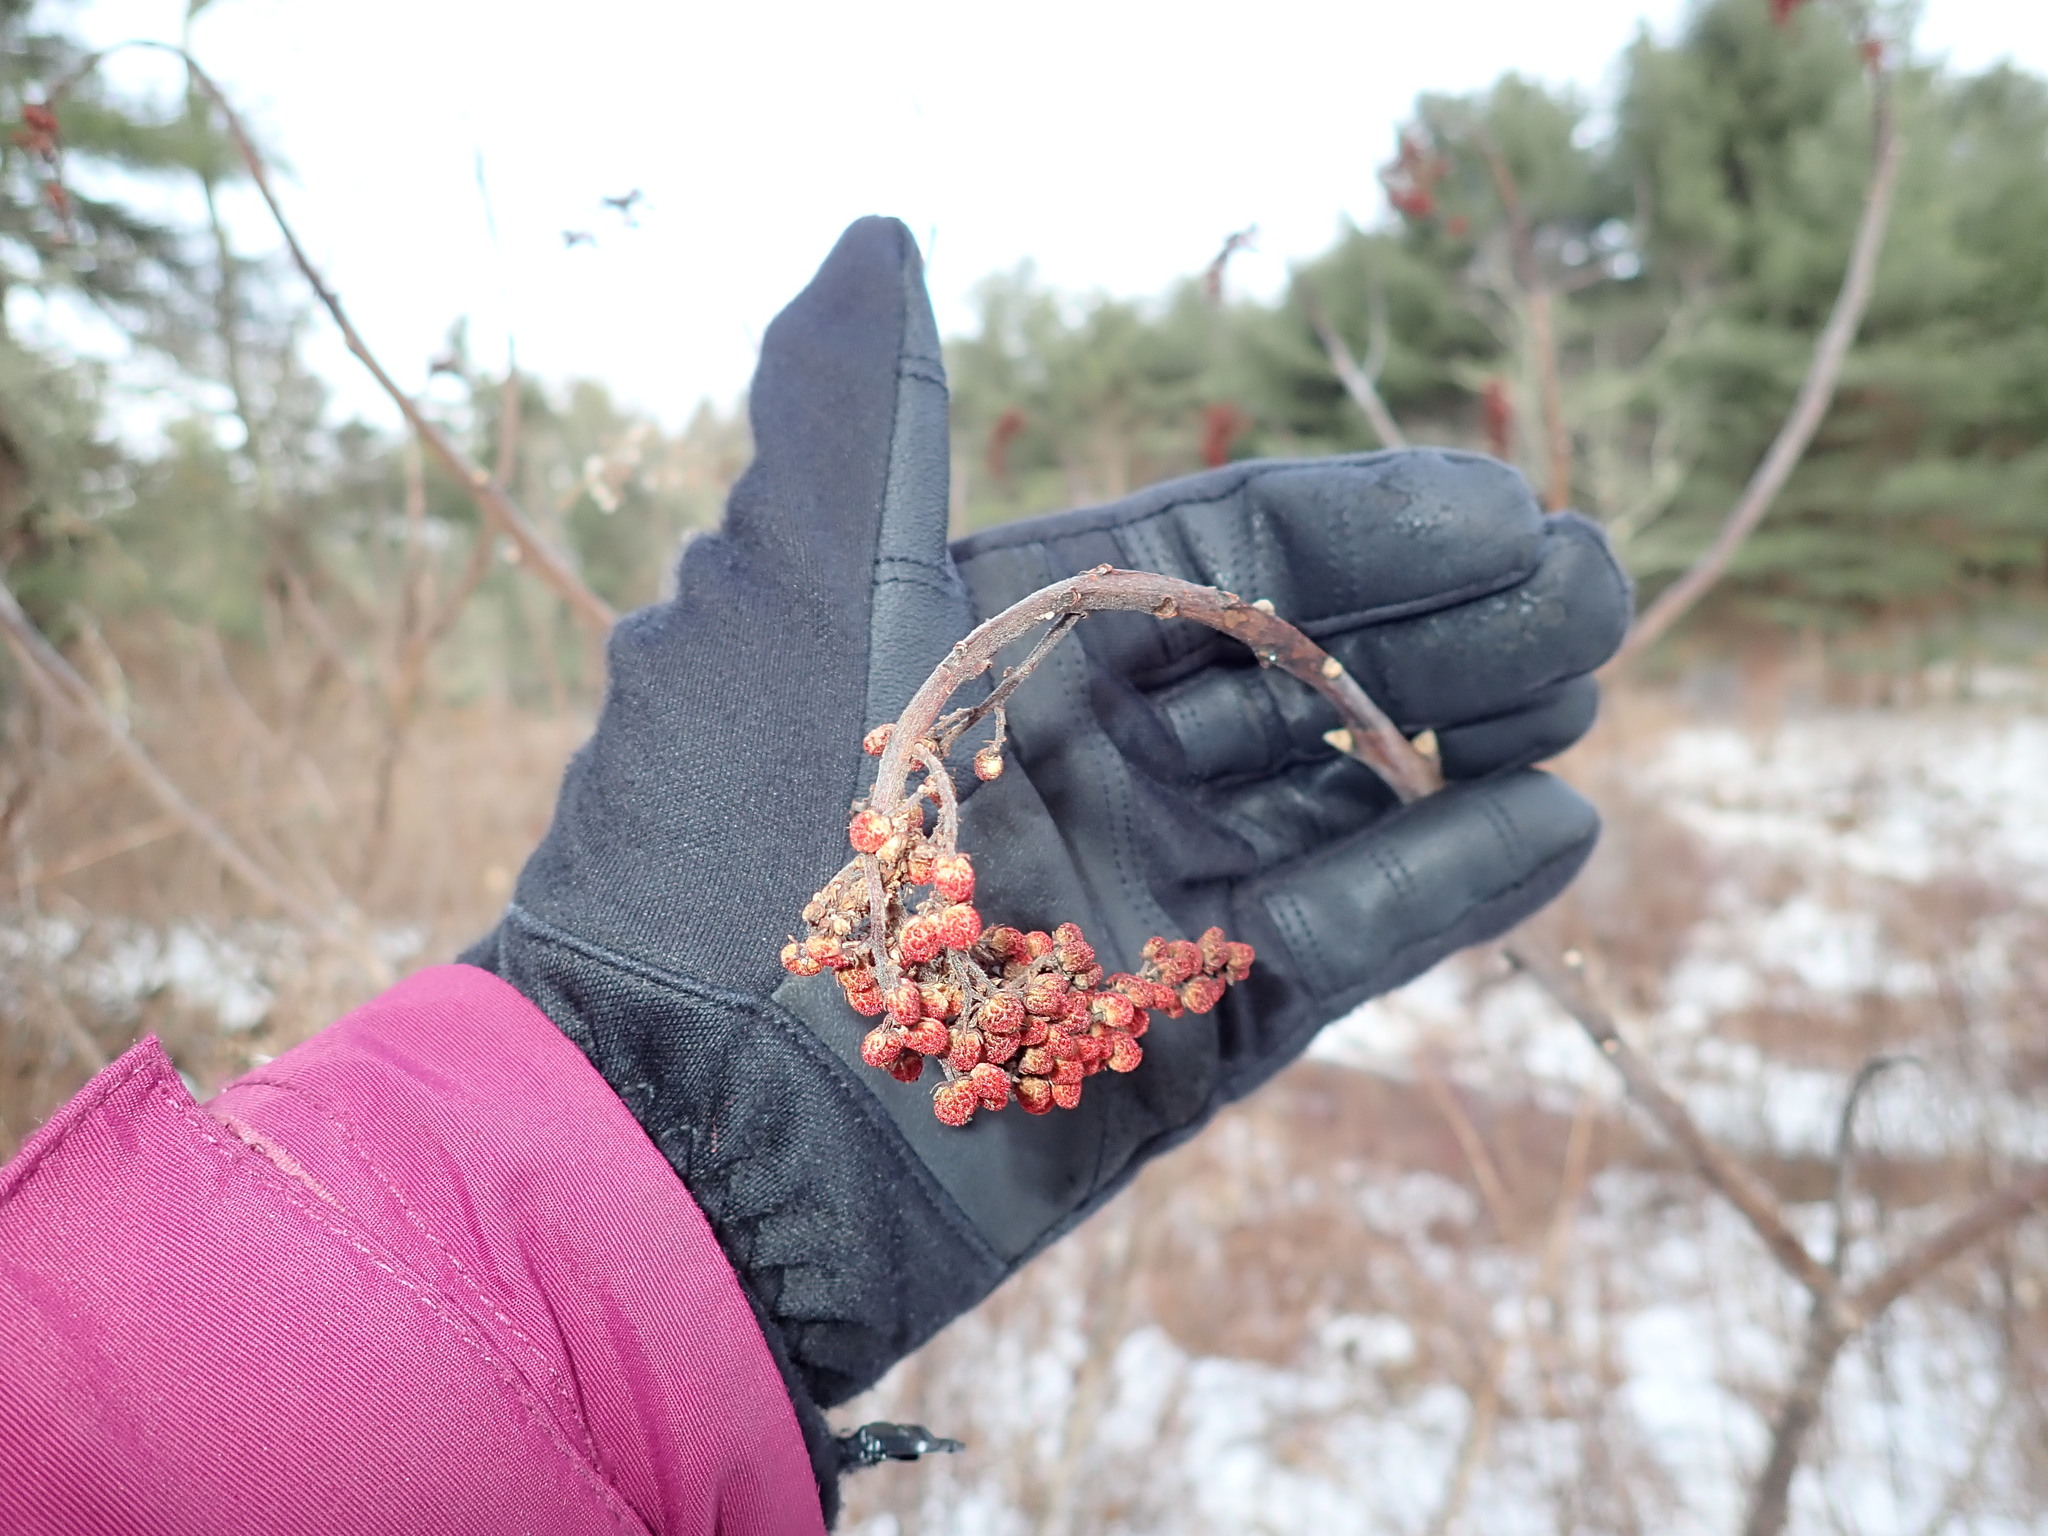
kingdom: Plantae
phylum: Tracheophyta
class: Magnoliopsida
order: Sapindales
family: Anacardiaceae
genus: Rhus
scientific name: Rhus glabra
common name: Scarlet sumac
